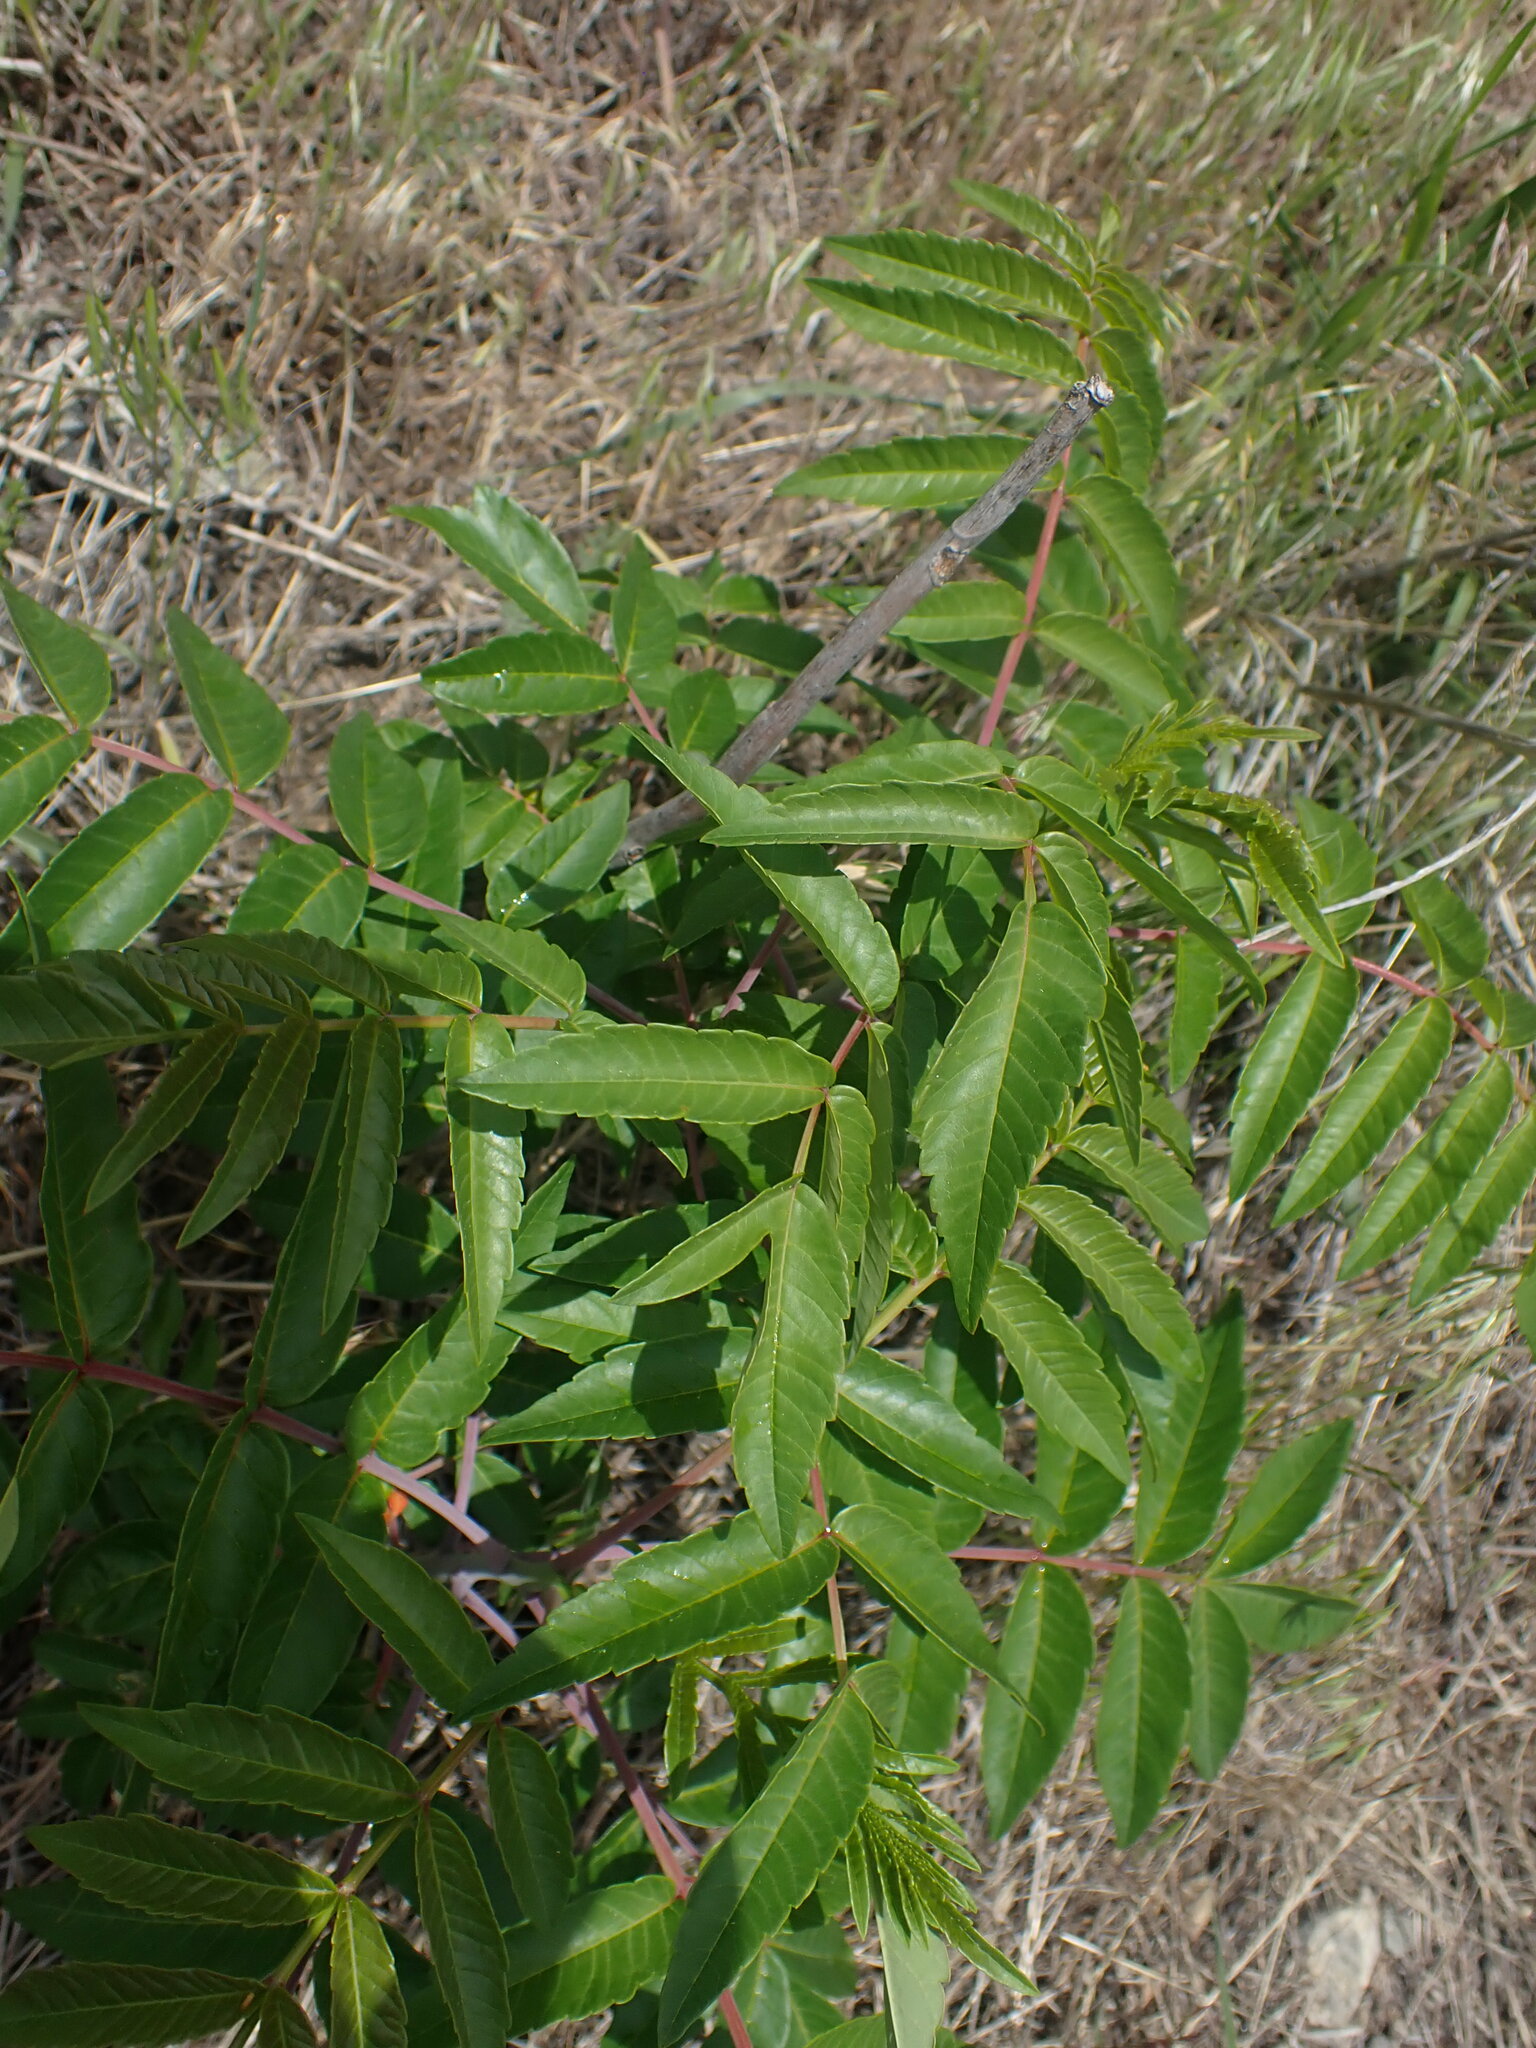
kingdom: Plantae
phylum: Tracheophyta
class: Magnoliopsida
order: Sapindales
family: Anacardiaceae
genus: Rhus
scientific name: Rhus glabra
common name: Scarlet sumac
